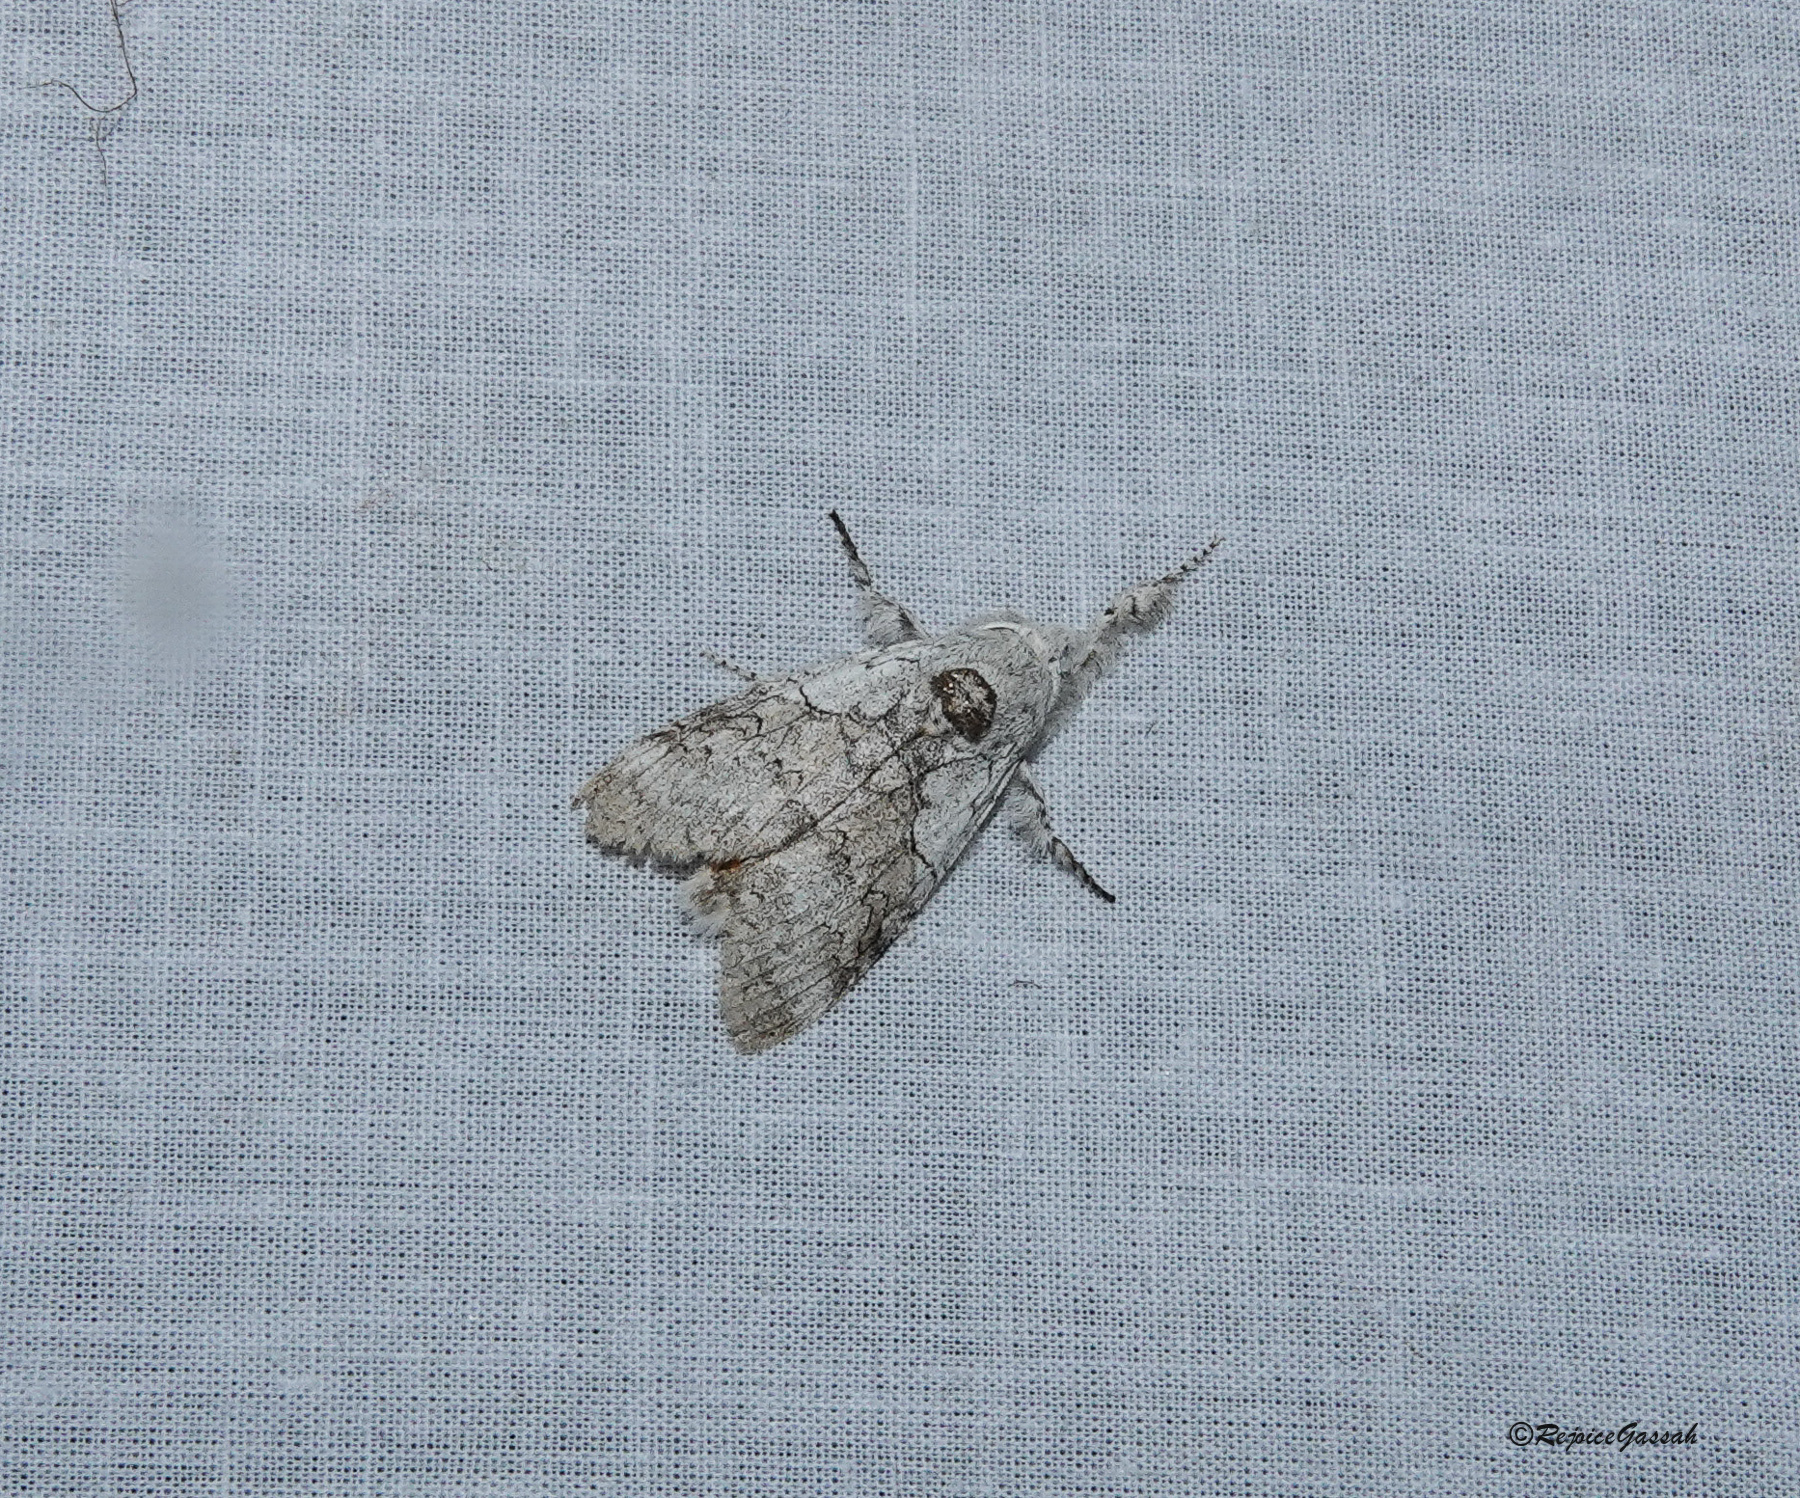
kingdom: Animalia
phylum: Arthropoda
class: Insecta
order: Lepidoptera
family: Erebidae
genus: Calliteara
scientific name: Calliteara horsfieldii
